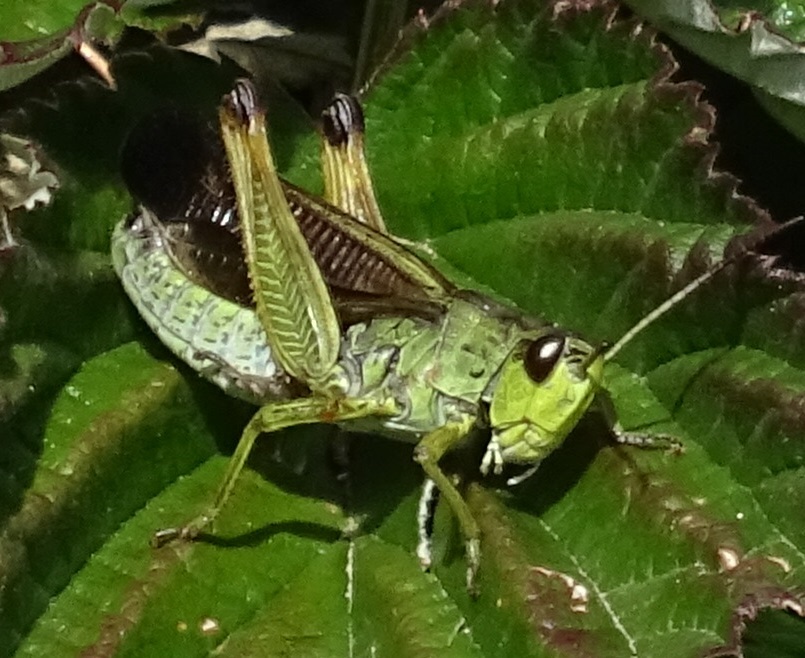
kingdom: Animalia
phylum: Arthropoda
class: Insecta
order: Orthoptera
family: Acrididae
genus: Stauroderus
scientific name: Stauroderus scalaris
